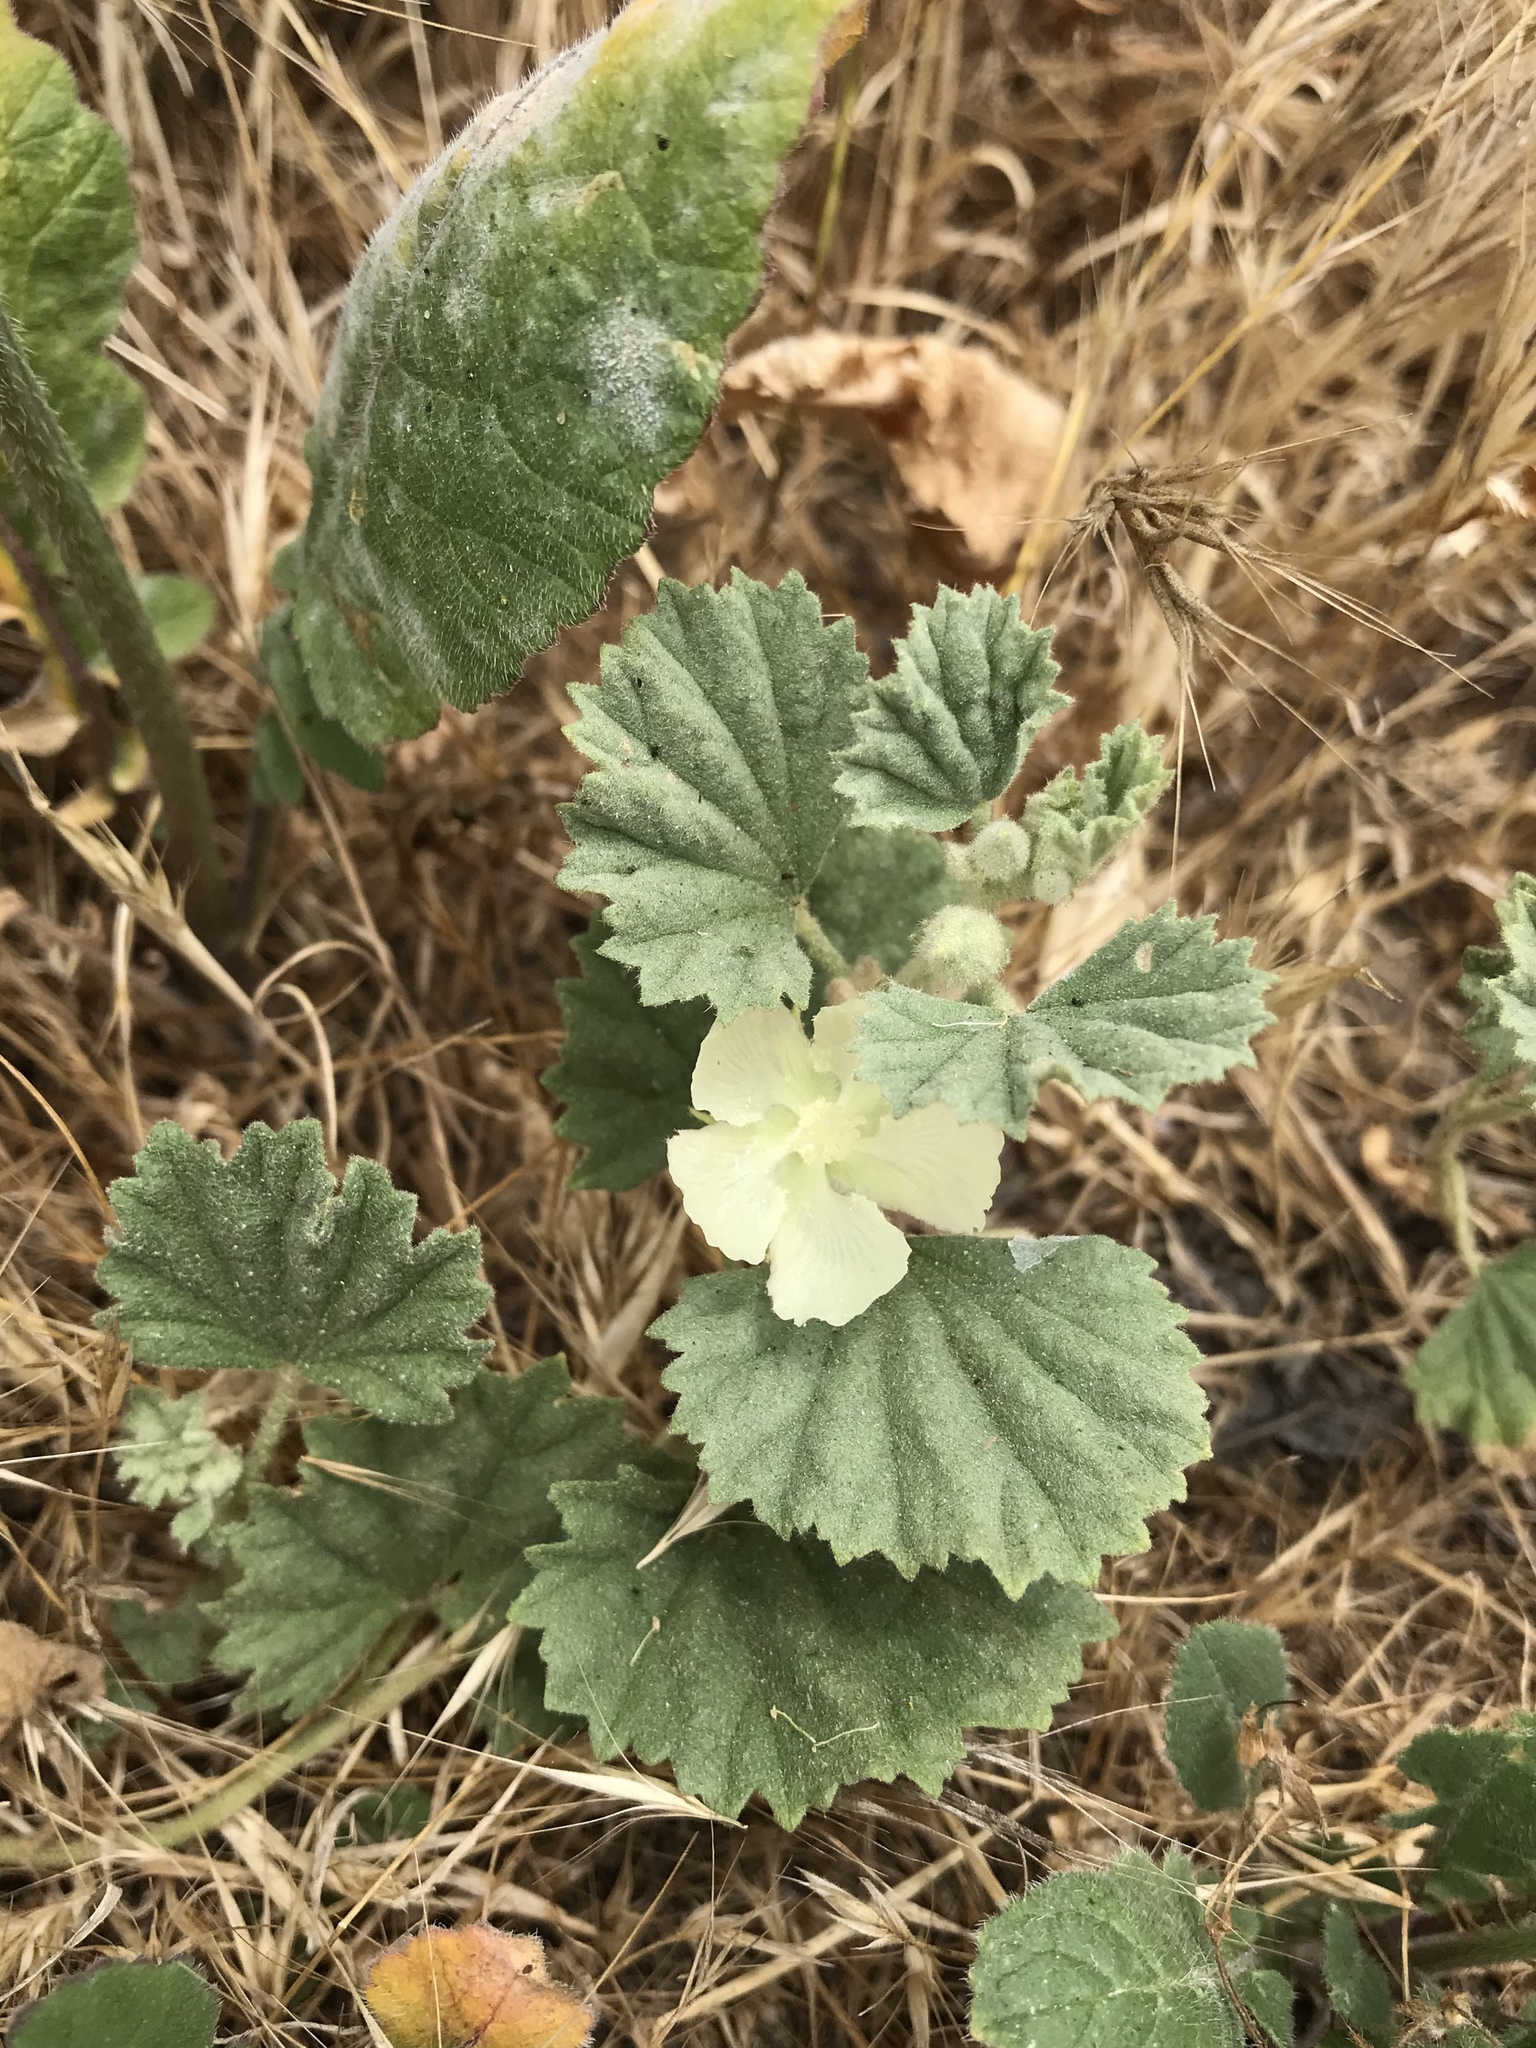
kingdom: Plantae
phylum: Tracheophyta
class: Magnoliopsida
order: Malvales
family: Malvaceae
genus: Malvella
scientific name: Malvella leprosa
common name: Alkali-mallow
